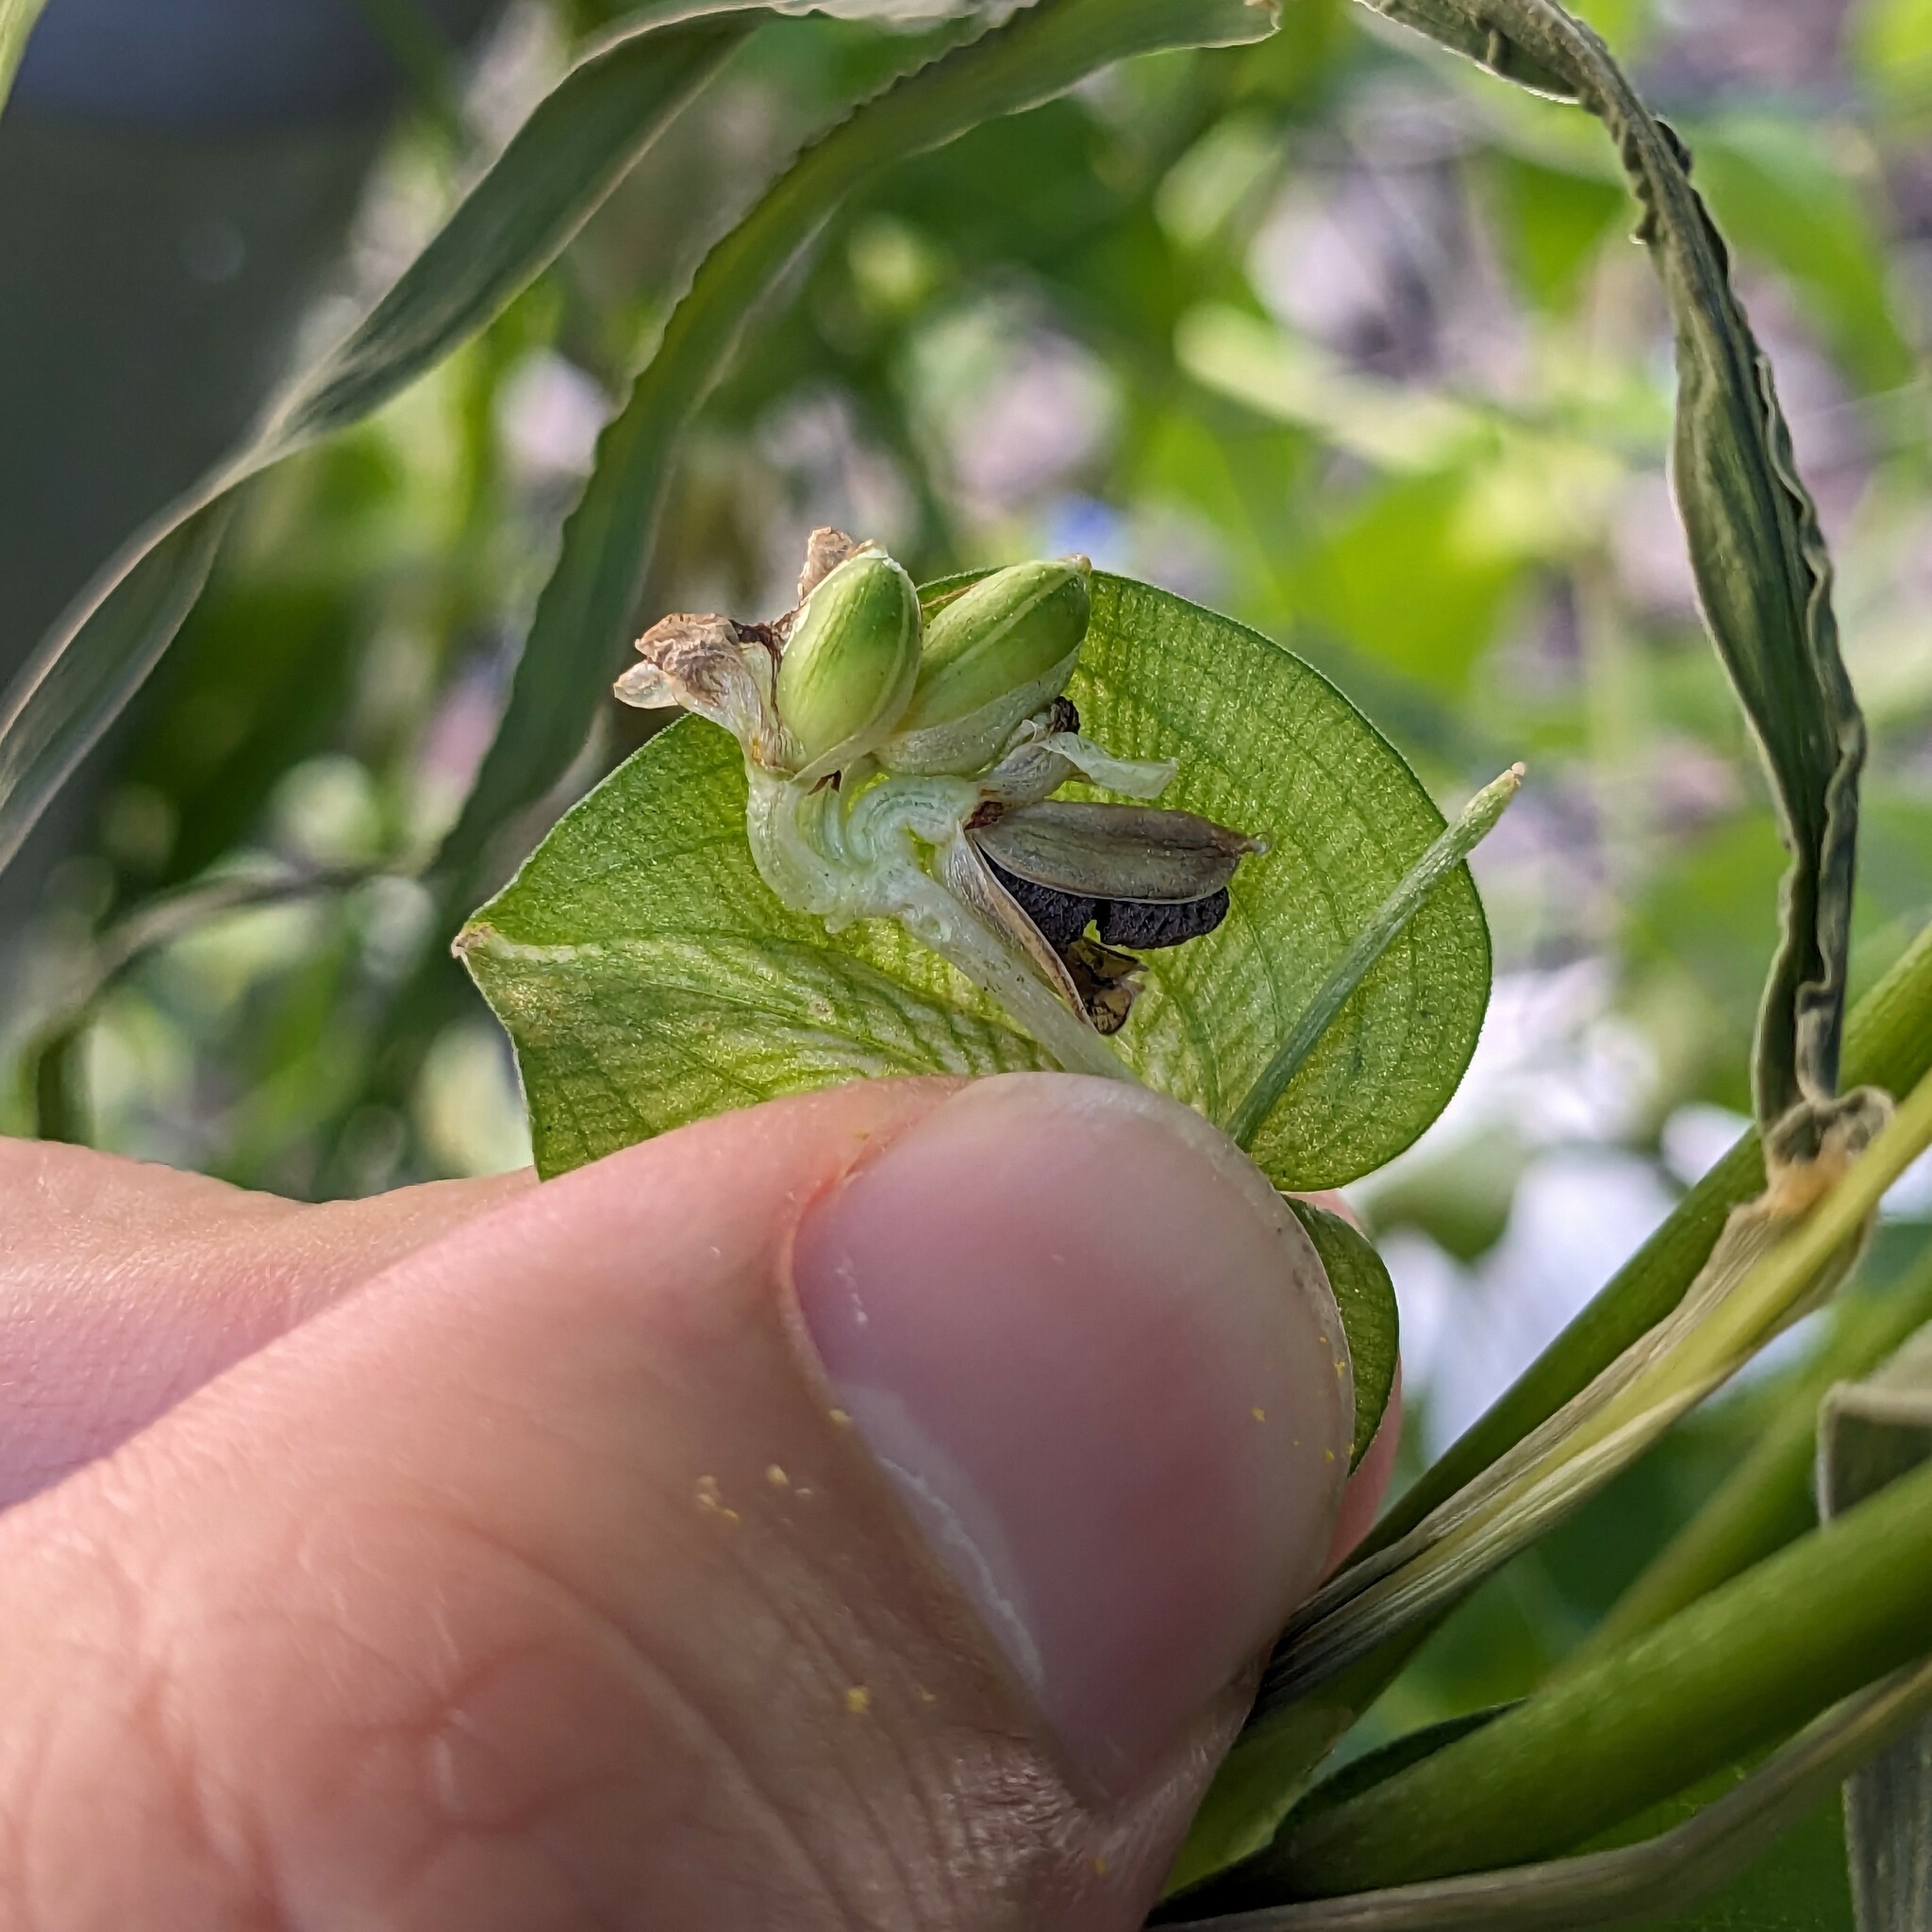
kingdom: Plantae
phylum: Tracheophyta
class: Liliopsida
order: Commelinales
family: Commelinaceae
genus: Commelina
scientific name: Commelina communis
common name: Asiatic dayflower
